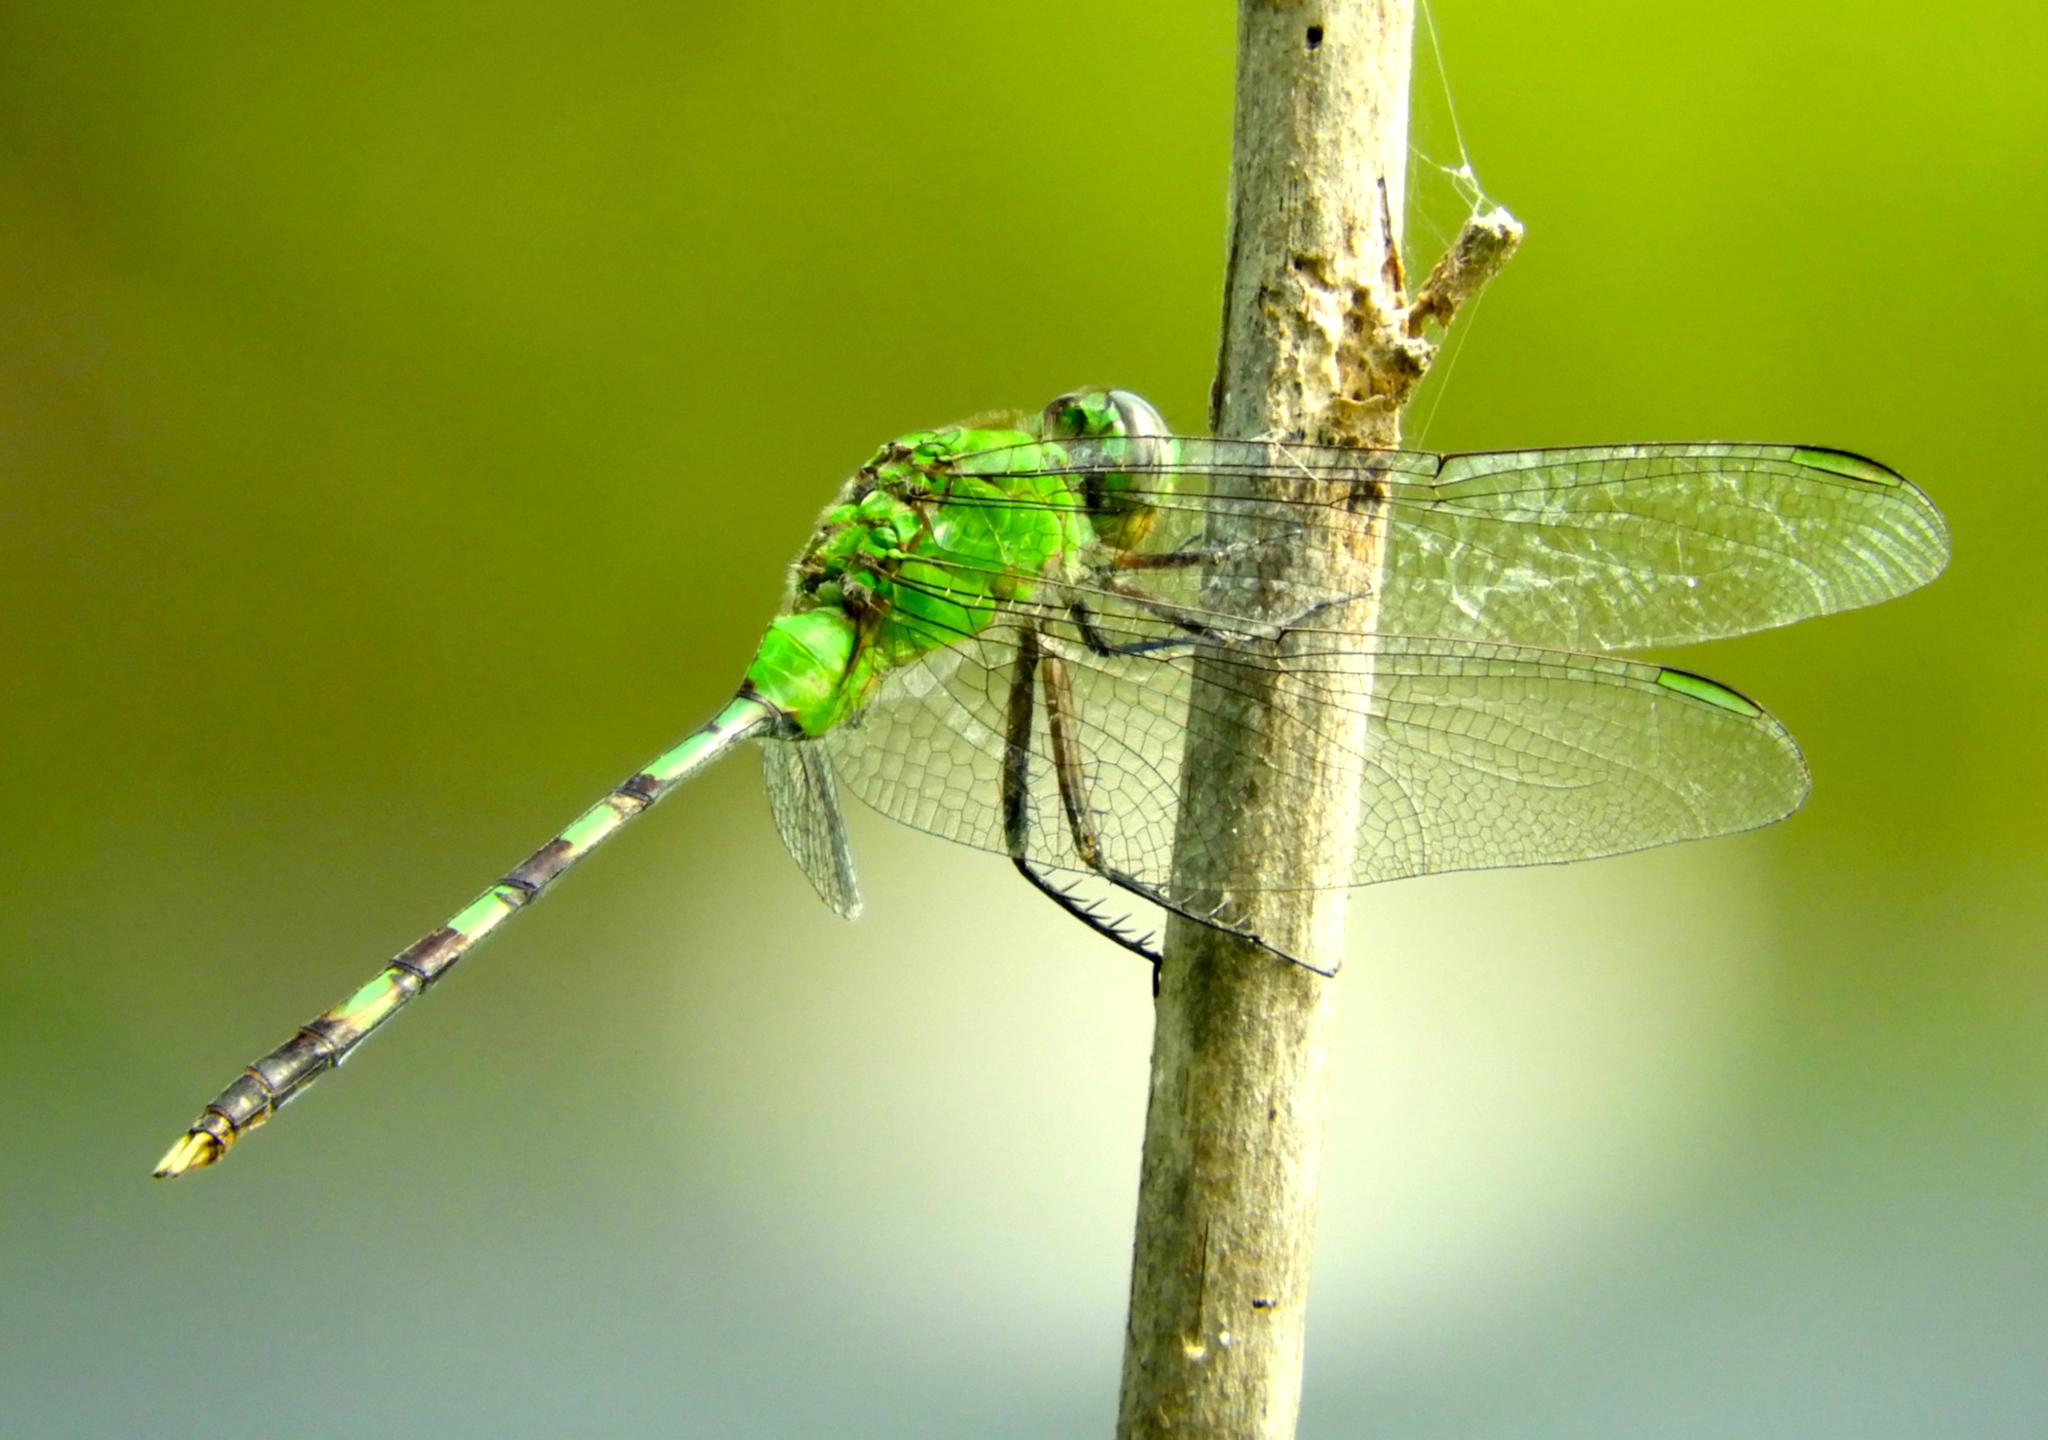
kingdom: Animalia
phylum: Arthropoda
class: Insecta
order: Odonata
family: Libellulidae
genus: Erythemis
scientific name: Erythemis vesiculosa
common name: Great pondhawk
